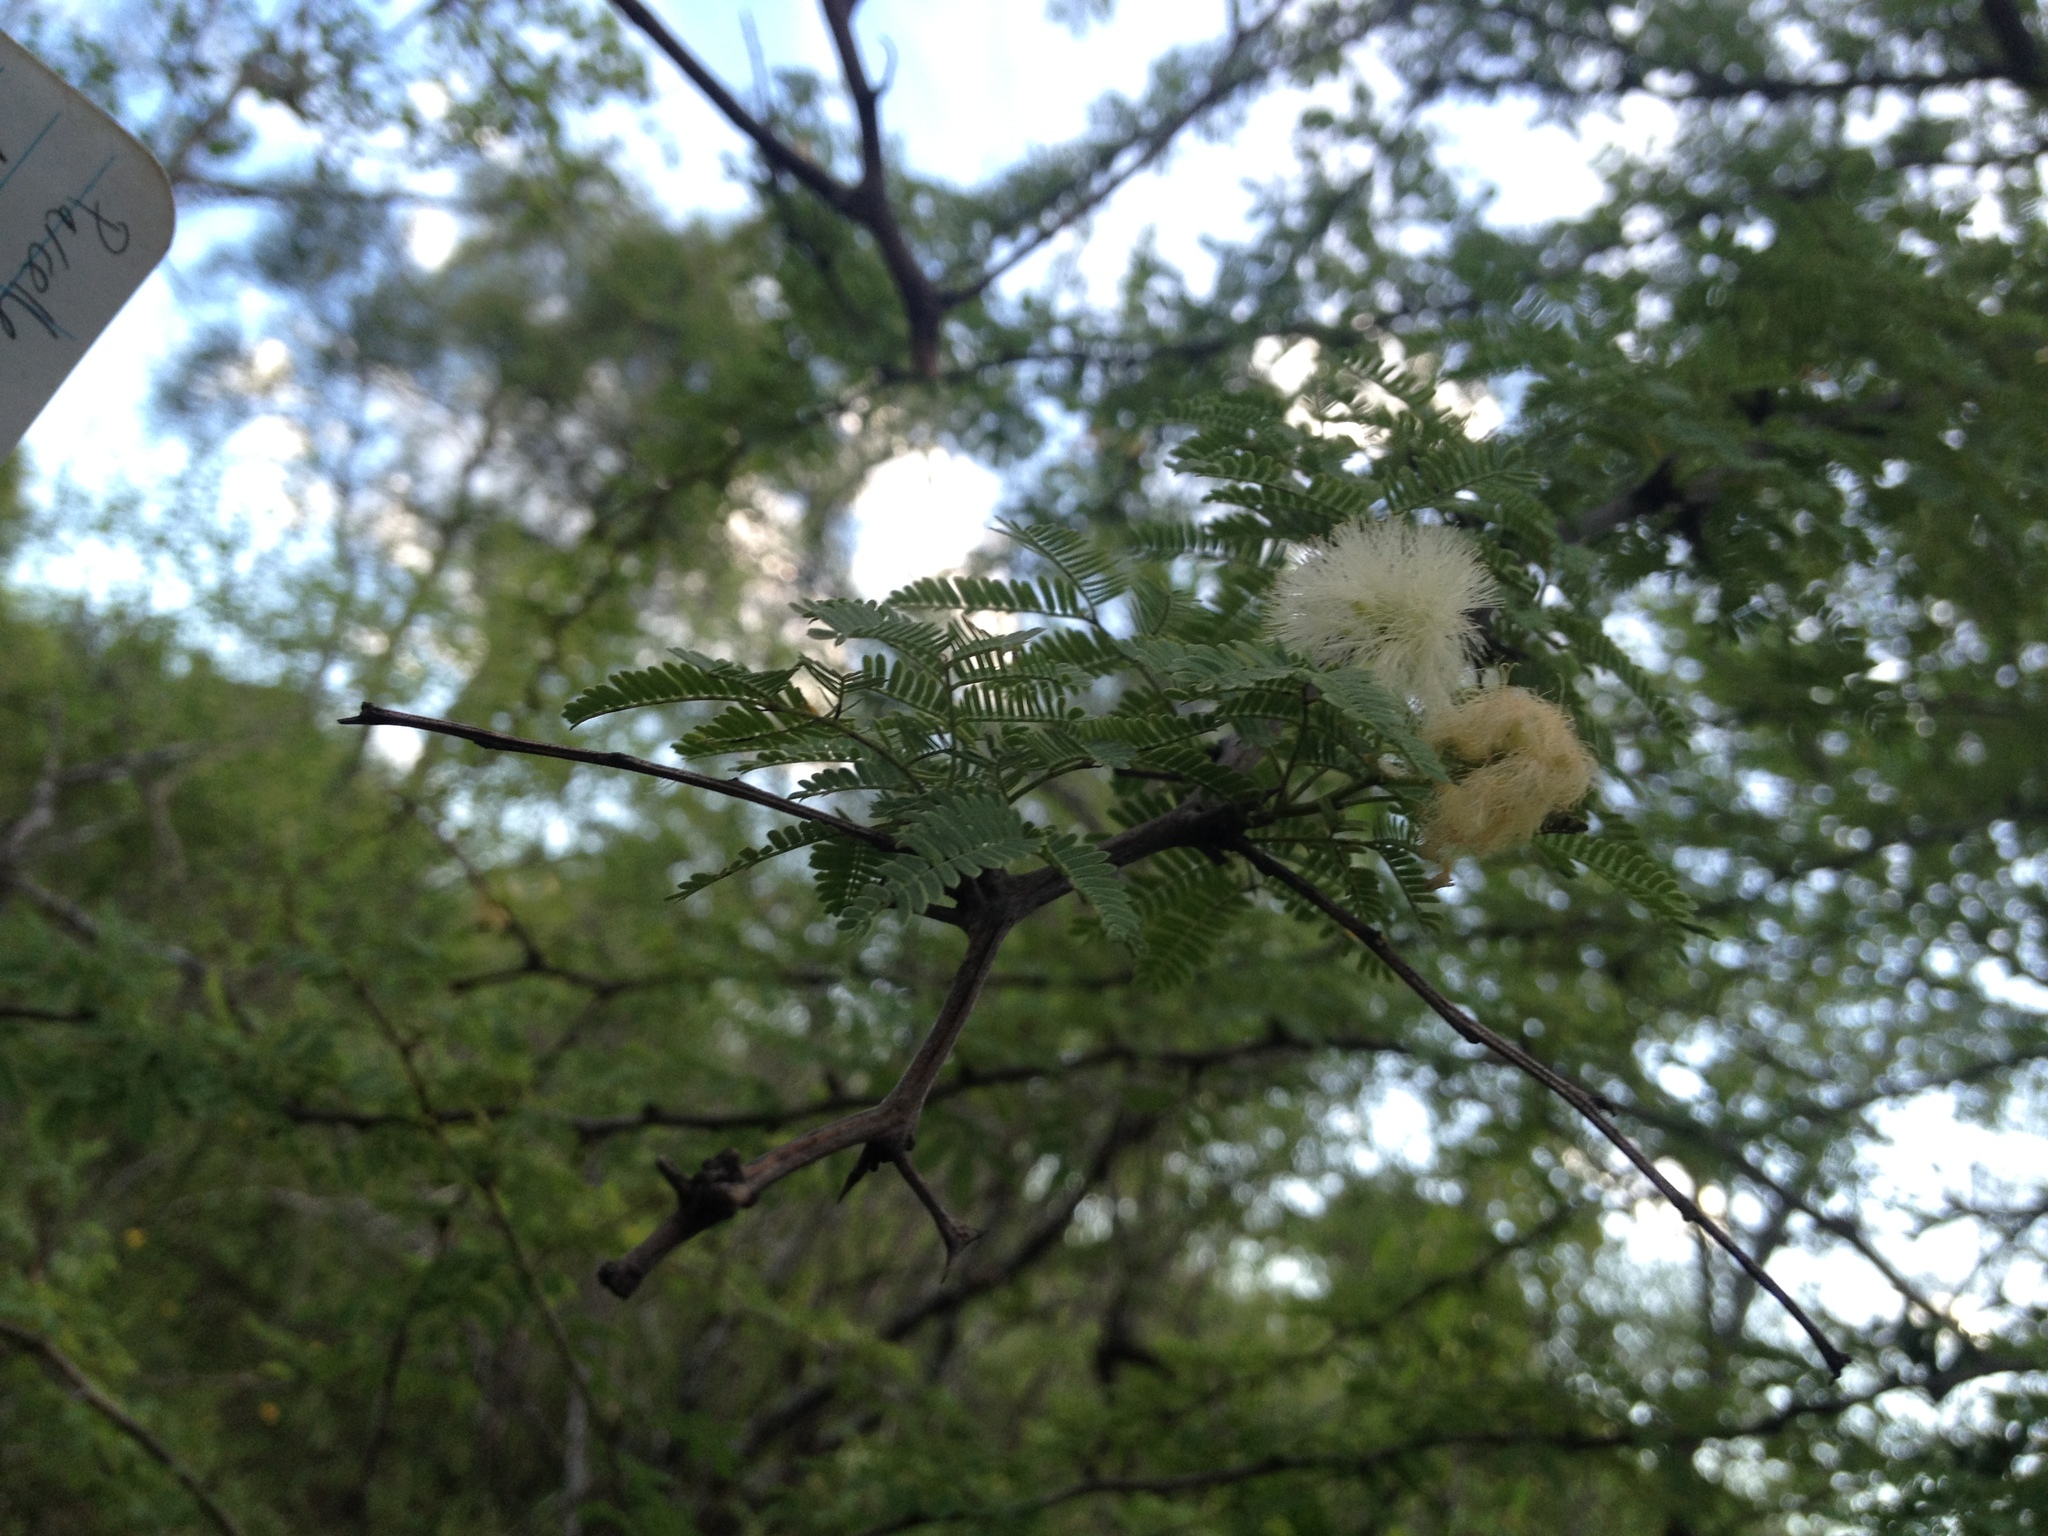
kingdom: Plantae
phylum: Tracheophyta
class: Magnoliopsida
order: Fabales
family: Fabaceae
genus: Senegalia
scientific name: Senegalia gilliesii
